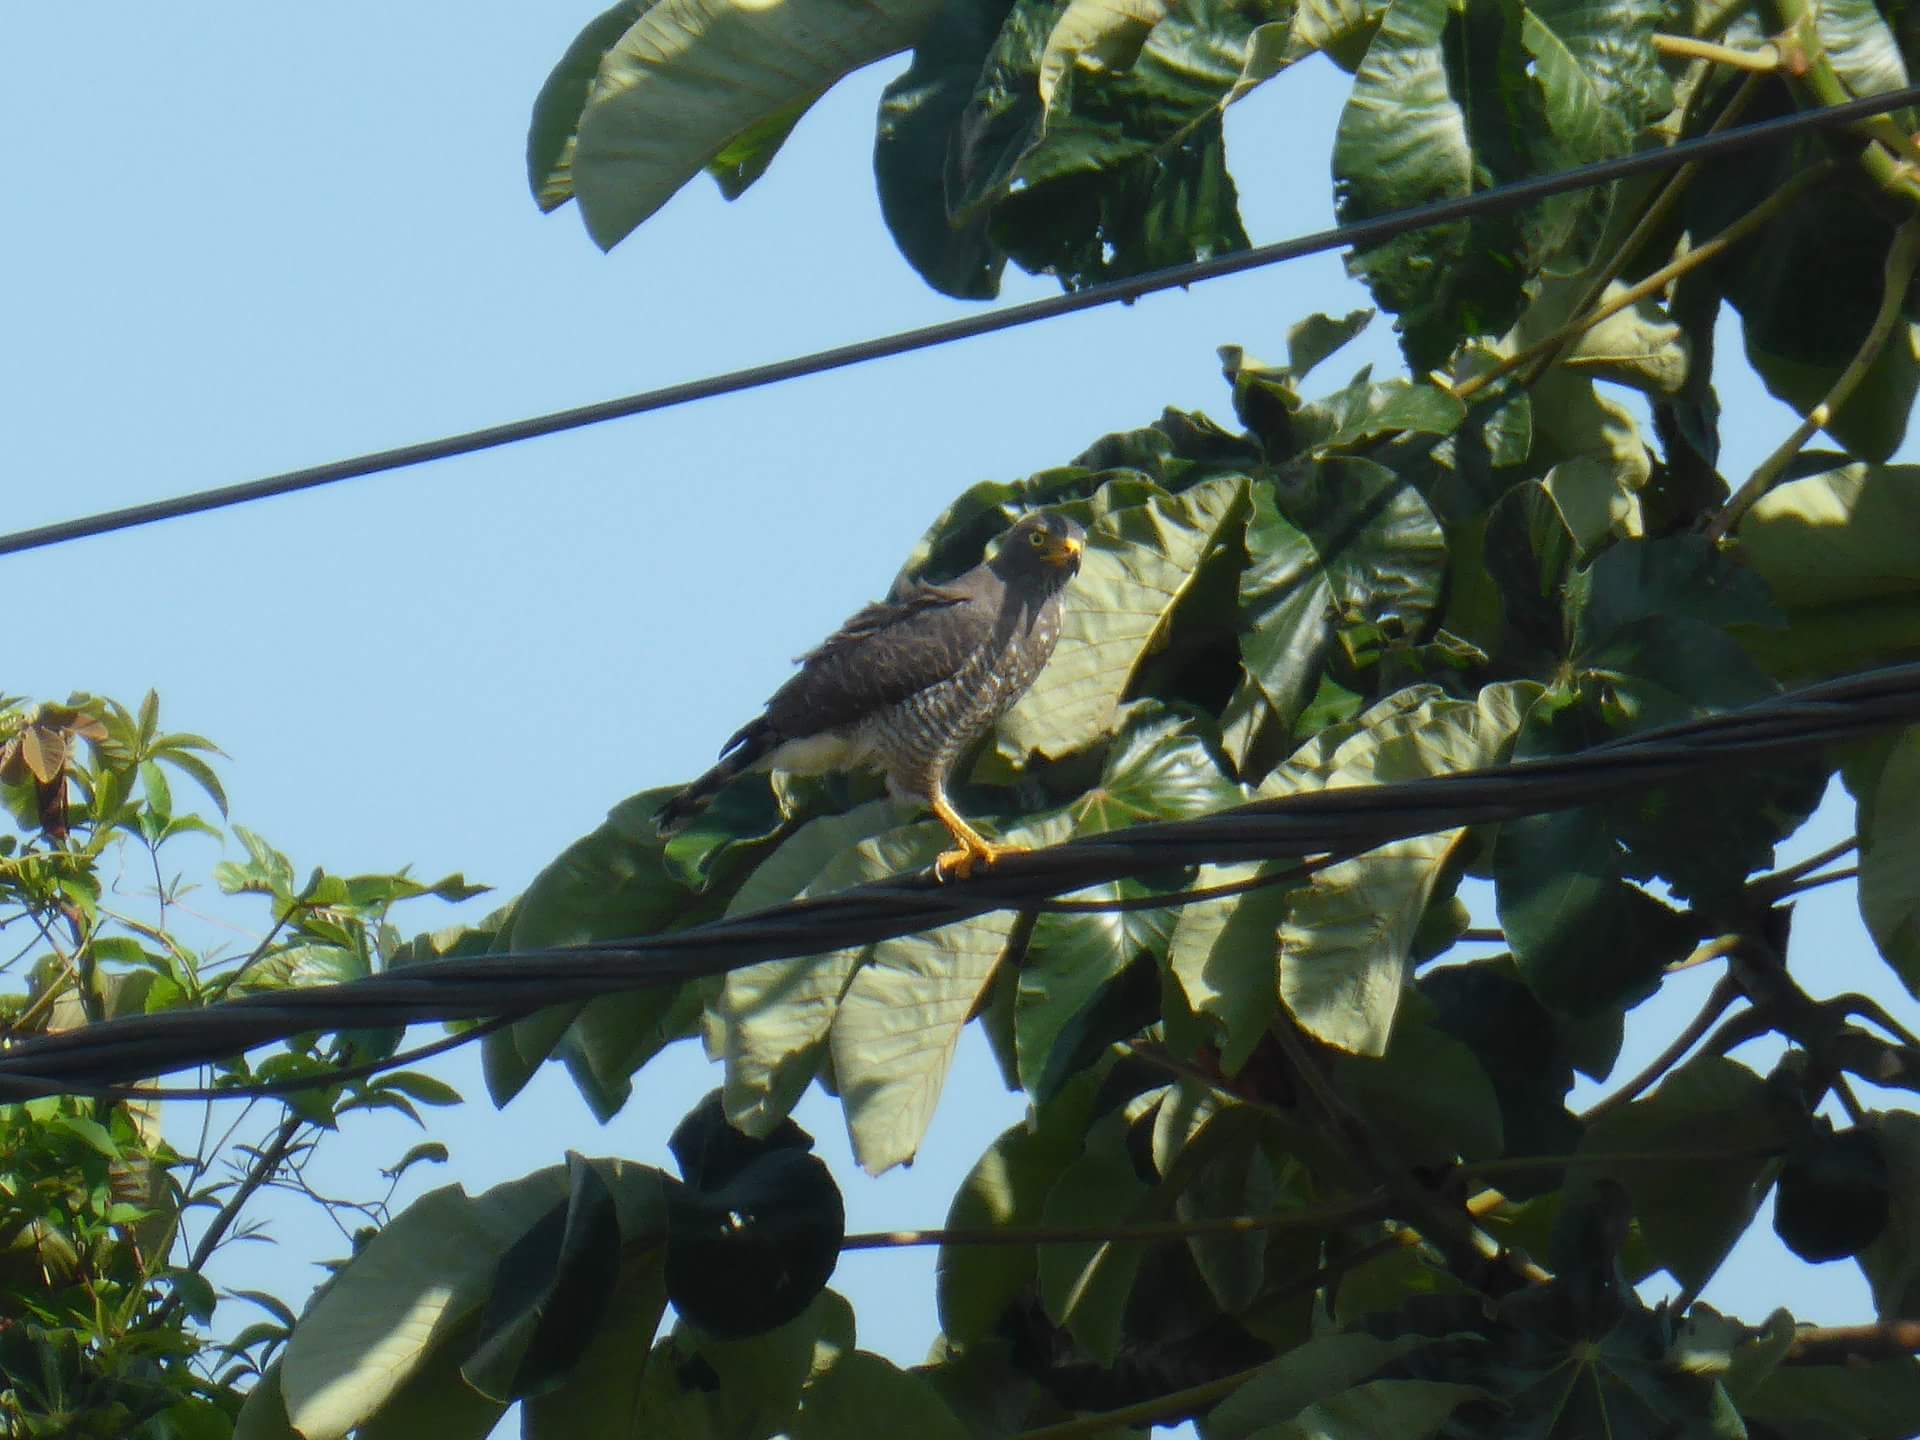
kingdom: Animalia
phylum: Chordata
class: Aves
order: Accipitriformes
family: Accipitridae
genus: Rupornis
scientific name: Rupornis magnirostris
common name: Roadside hawk
